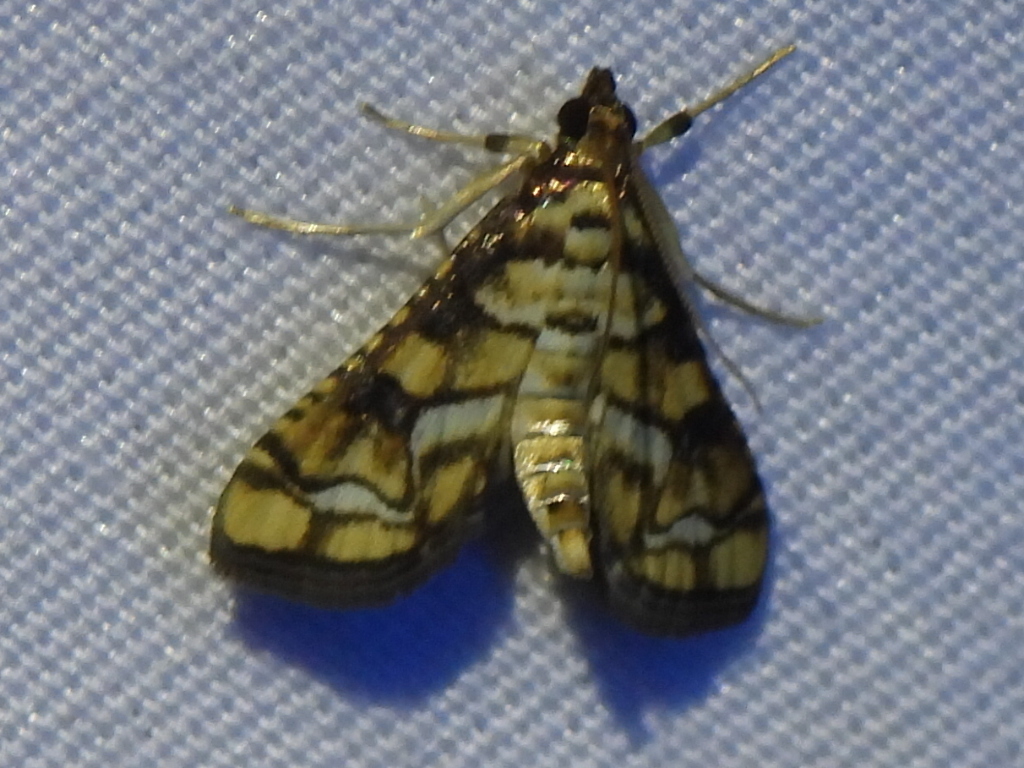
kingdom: Animalia
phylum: Arthropoda
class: Insecta
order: Lepidoptera
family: Crambidae
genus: Hileithia
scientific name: Hileithia magualis
